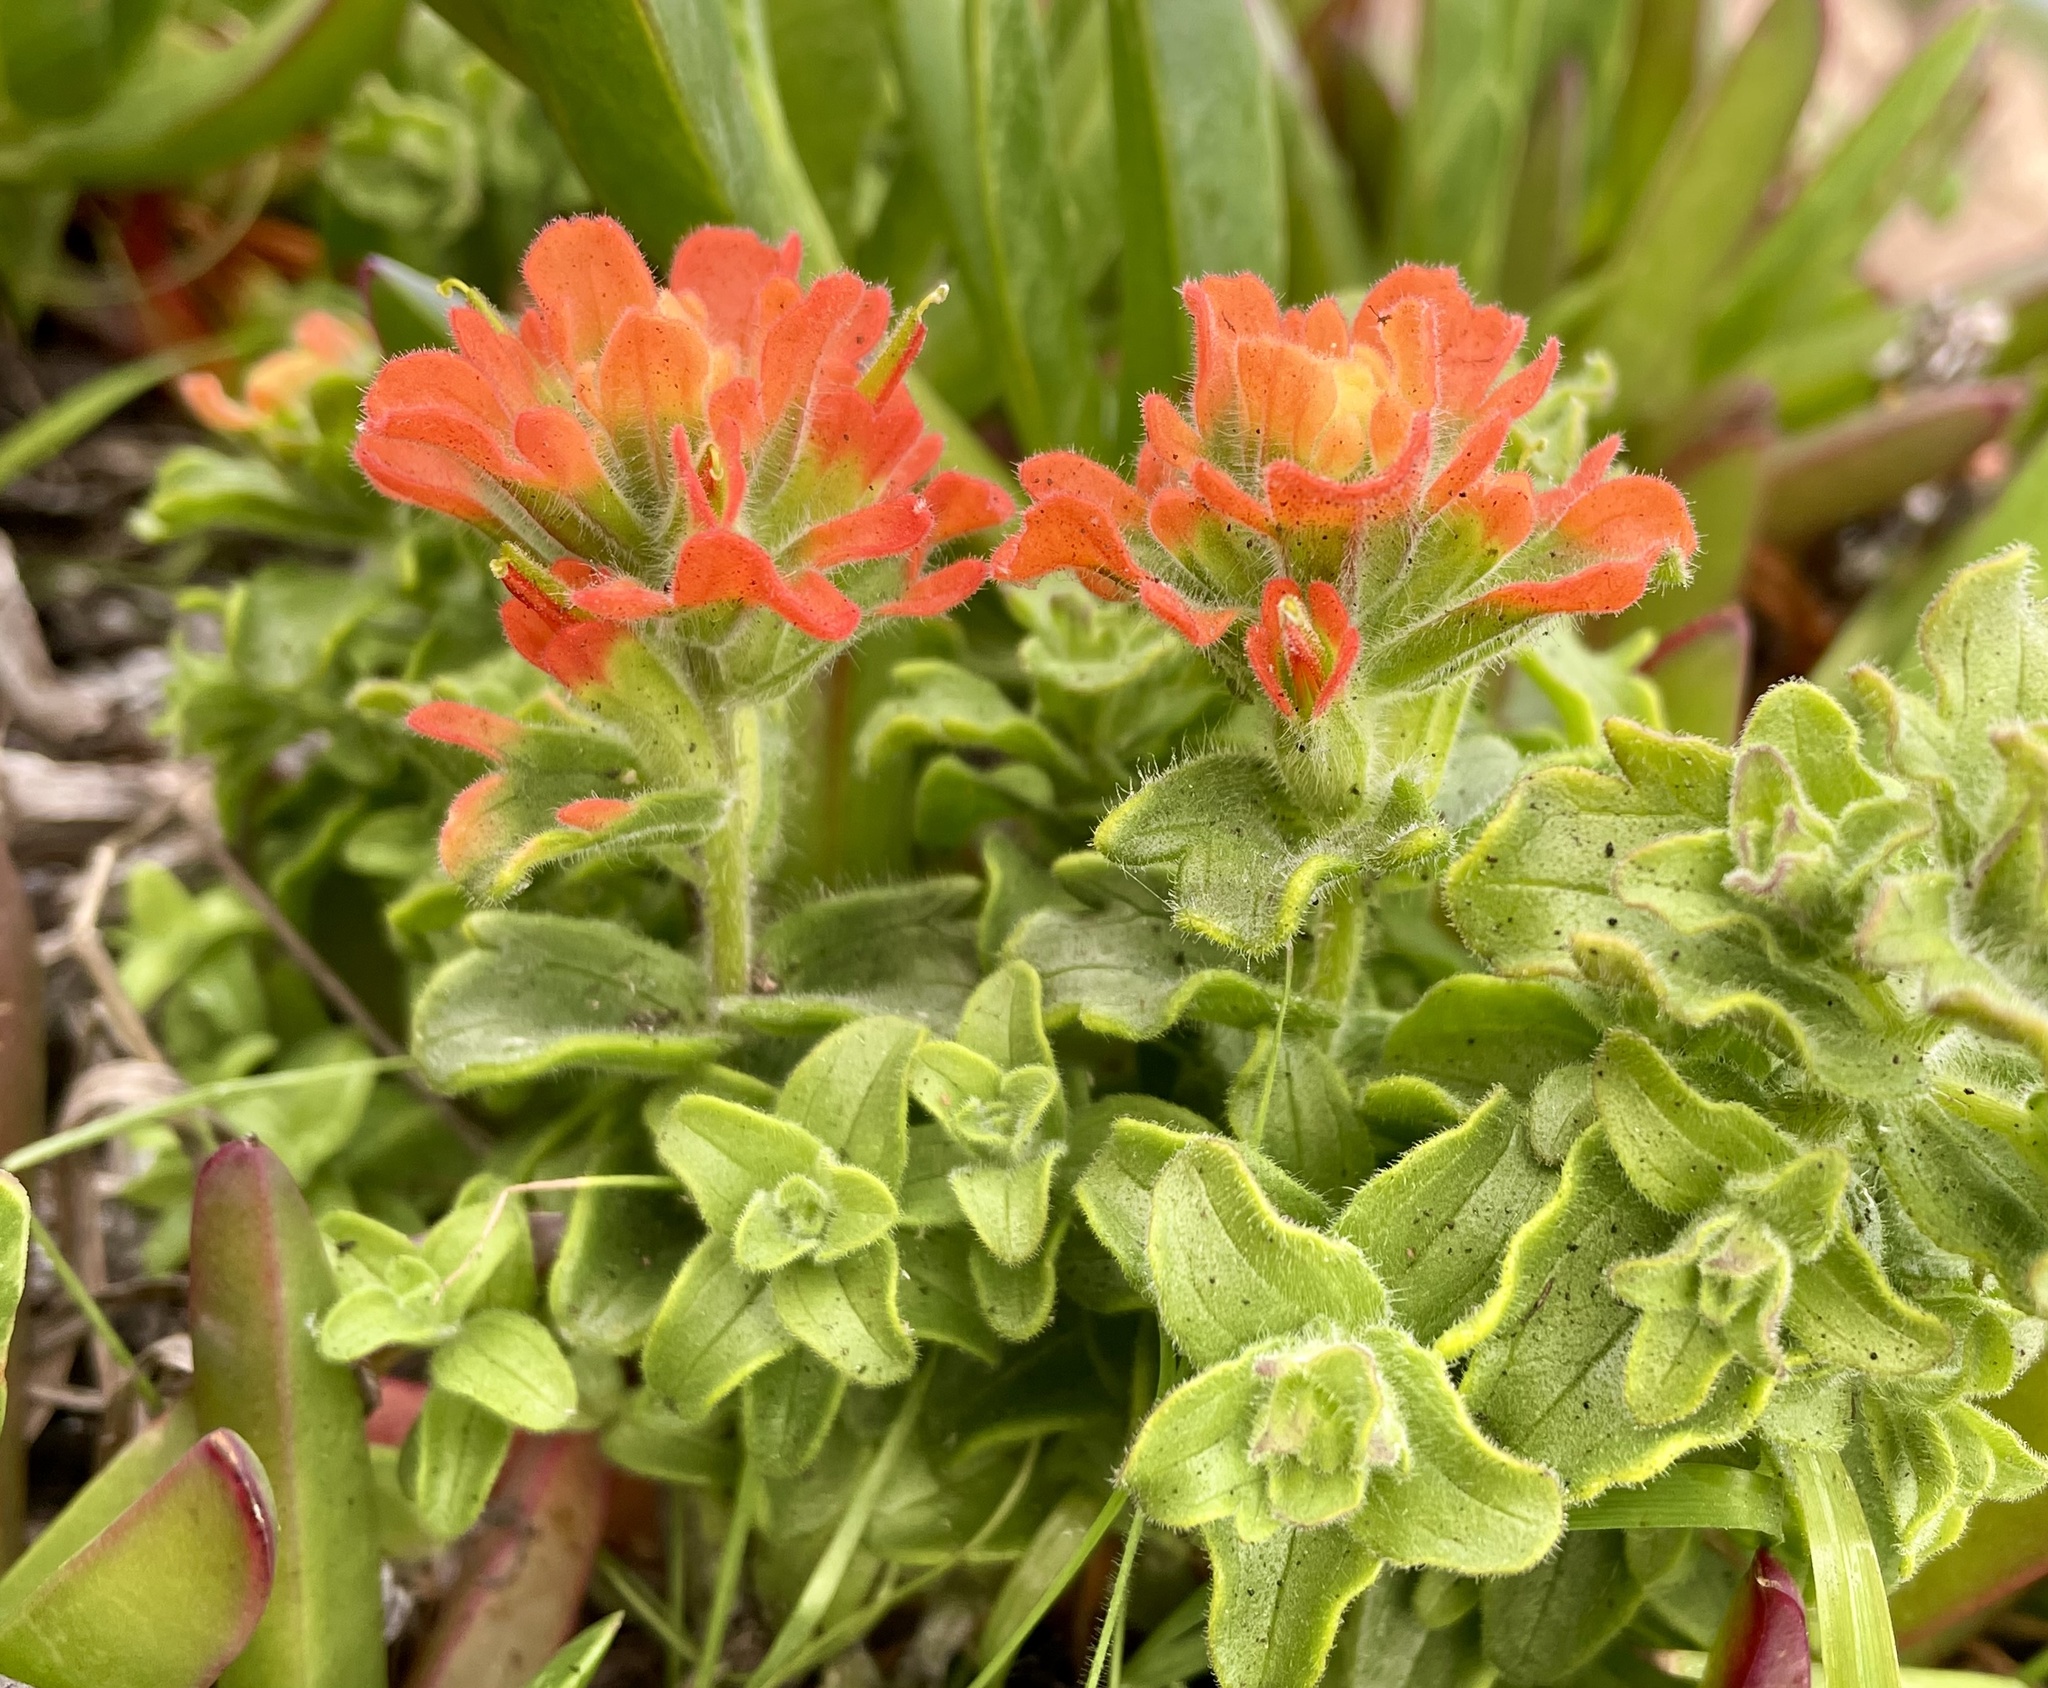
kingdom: Plantae
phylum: Tracheophyta
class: Magnoliopsida
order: Lamiales
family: Orobanchaceae
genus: Castilleja
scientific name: Castilleja latifolia
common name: Monterey indian paintbrush
